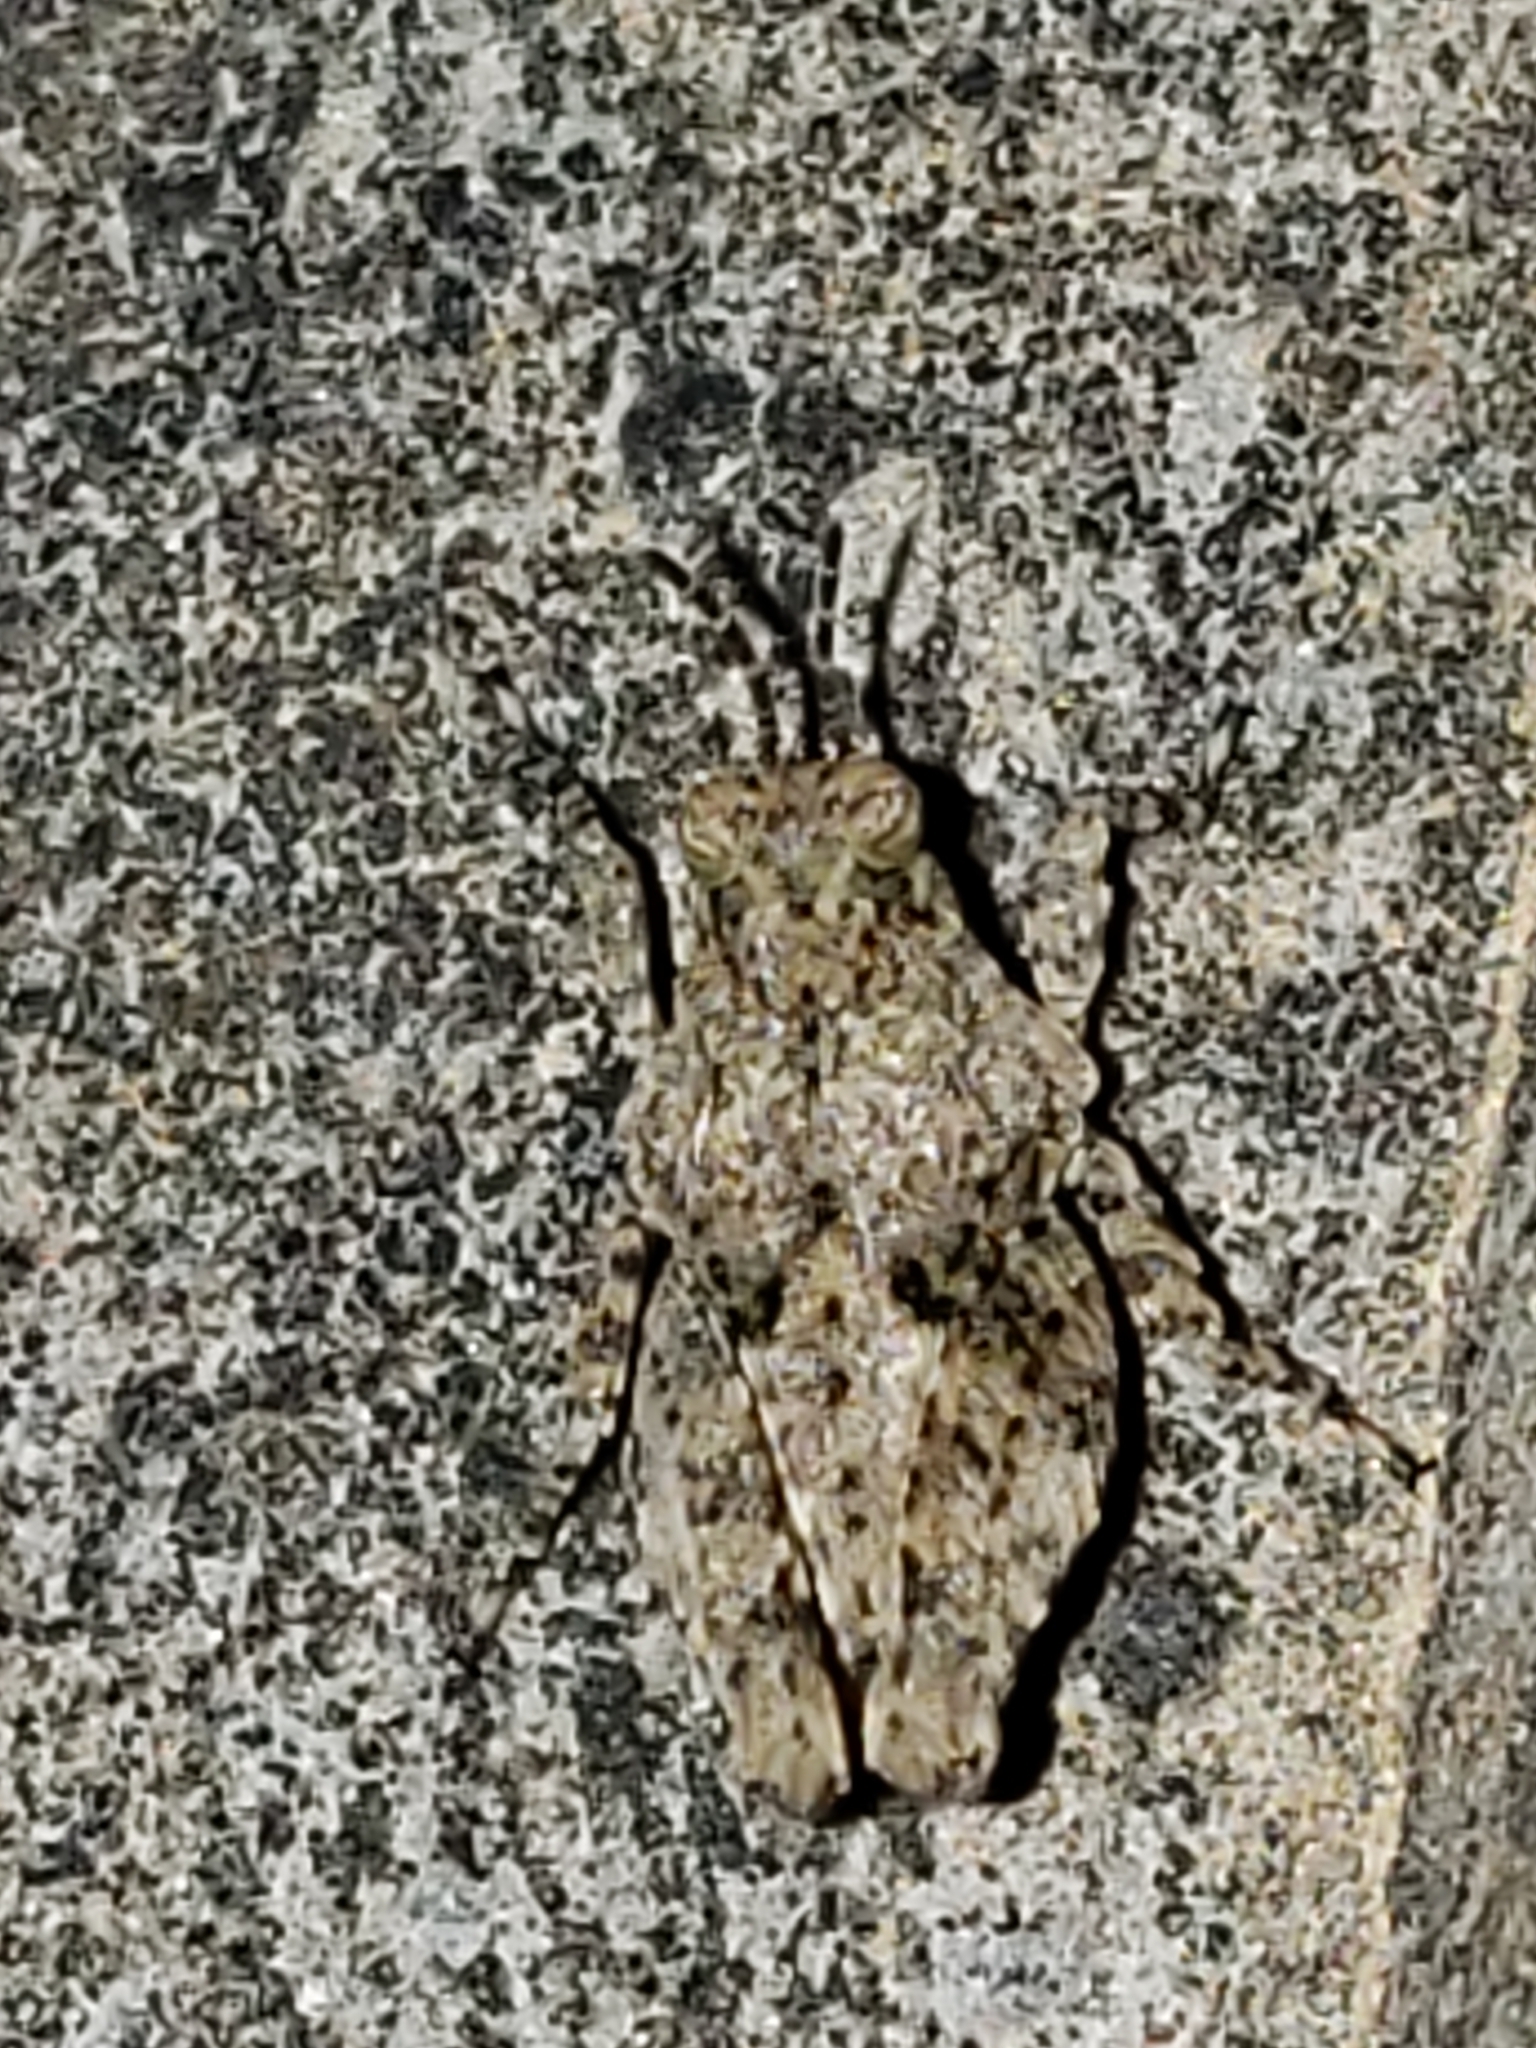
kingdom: Animalia
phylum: Arthropoda
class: Insecta
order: Orthoptera
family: Tetrigidae
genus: Paratettix
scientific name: Paratettix cucullatus
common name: Hooded grouse locust
